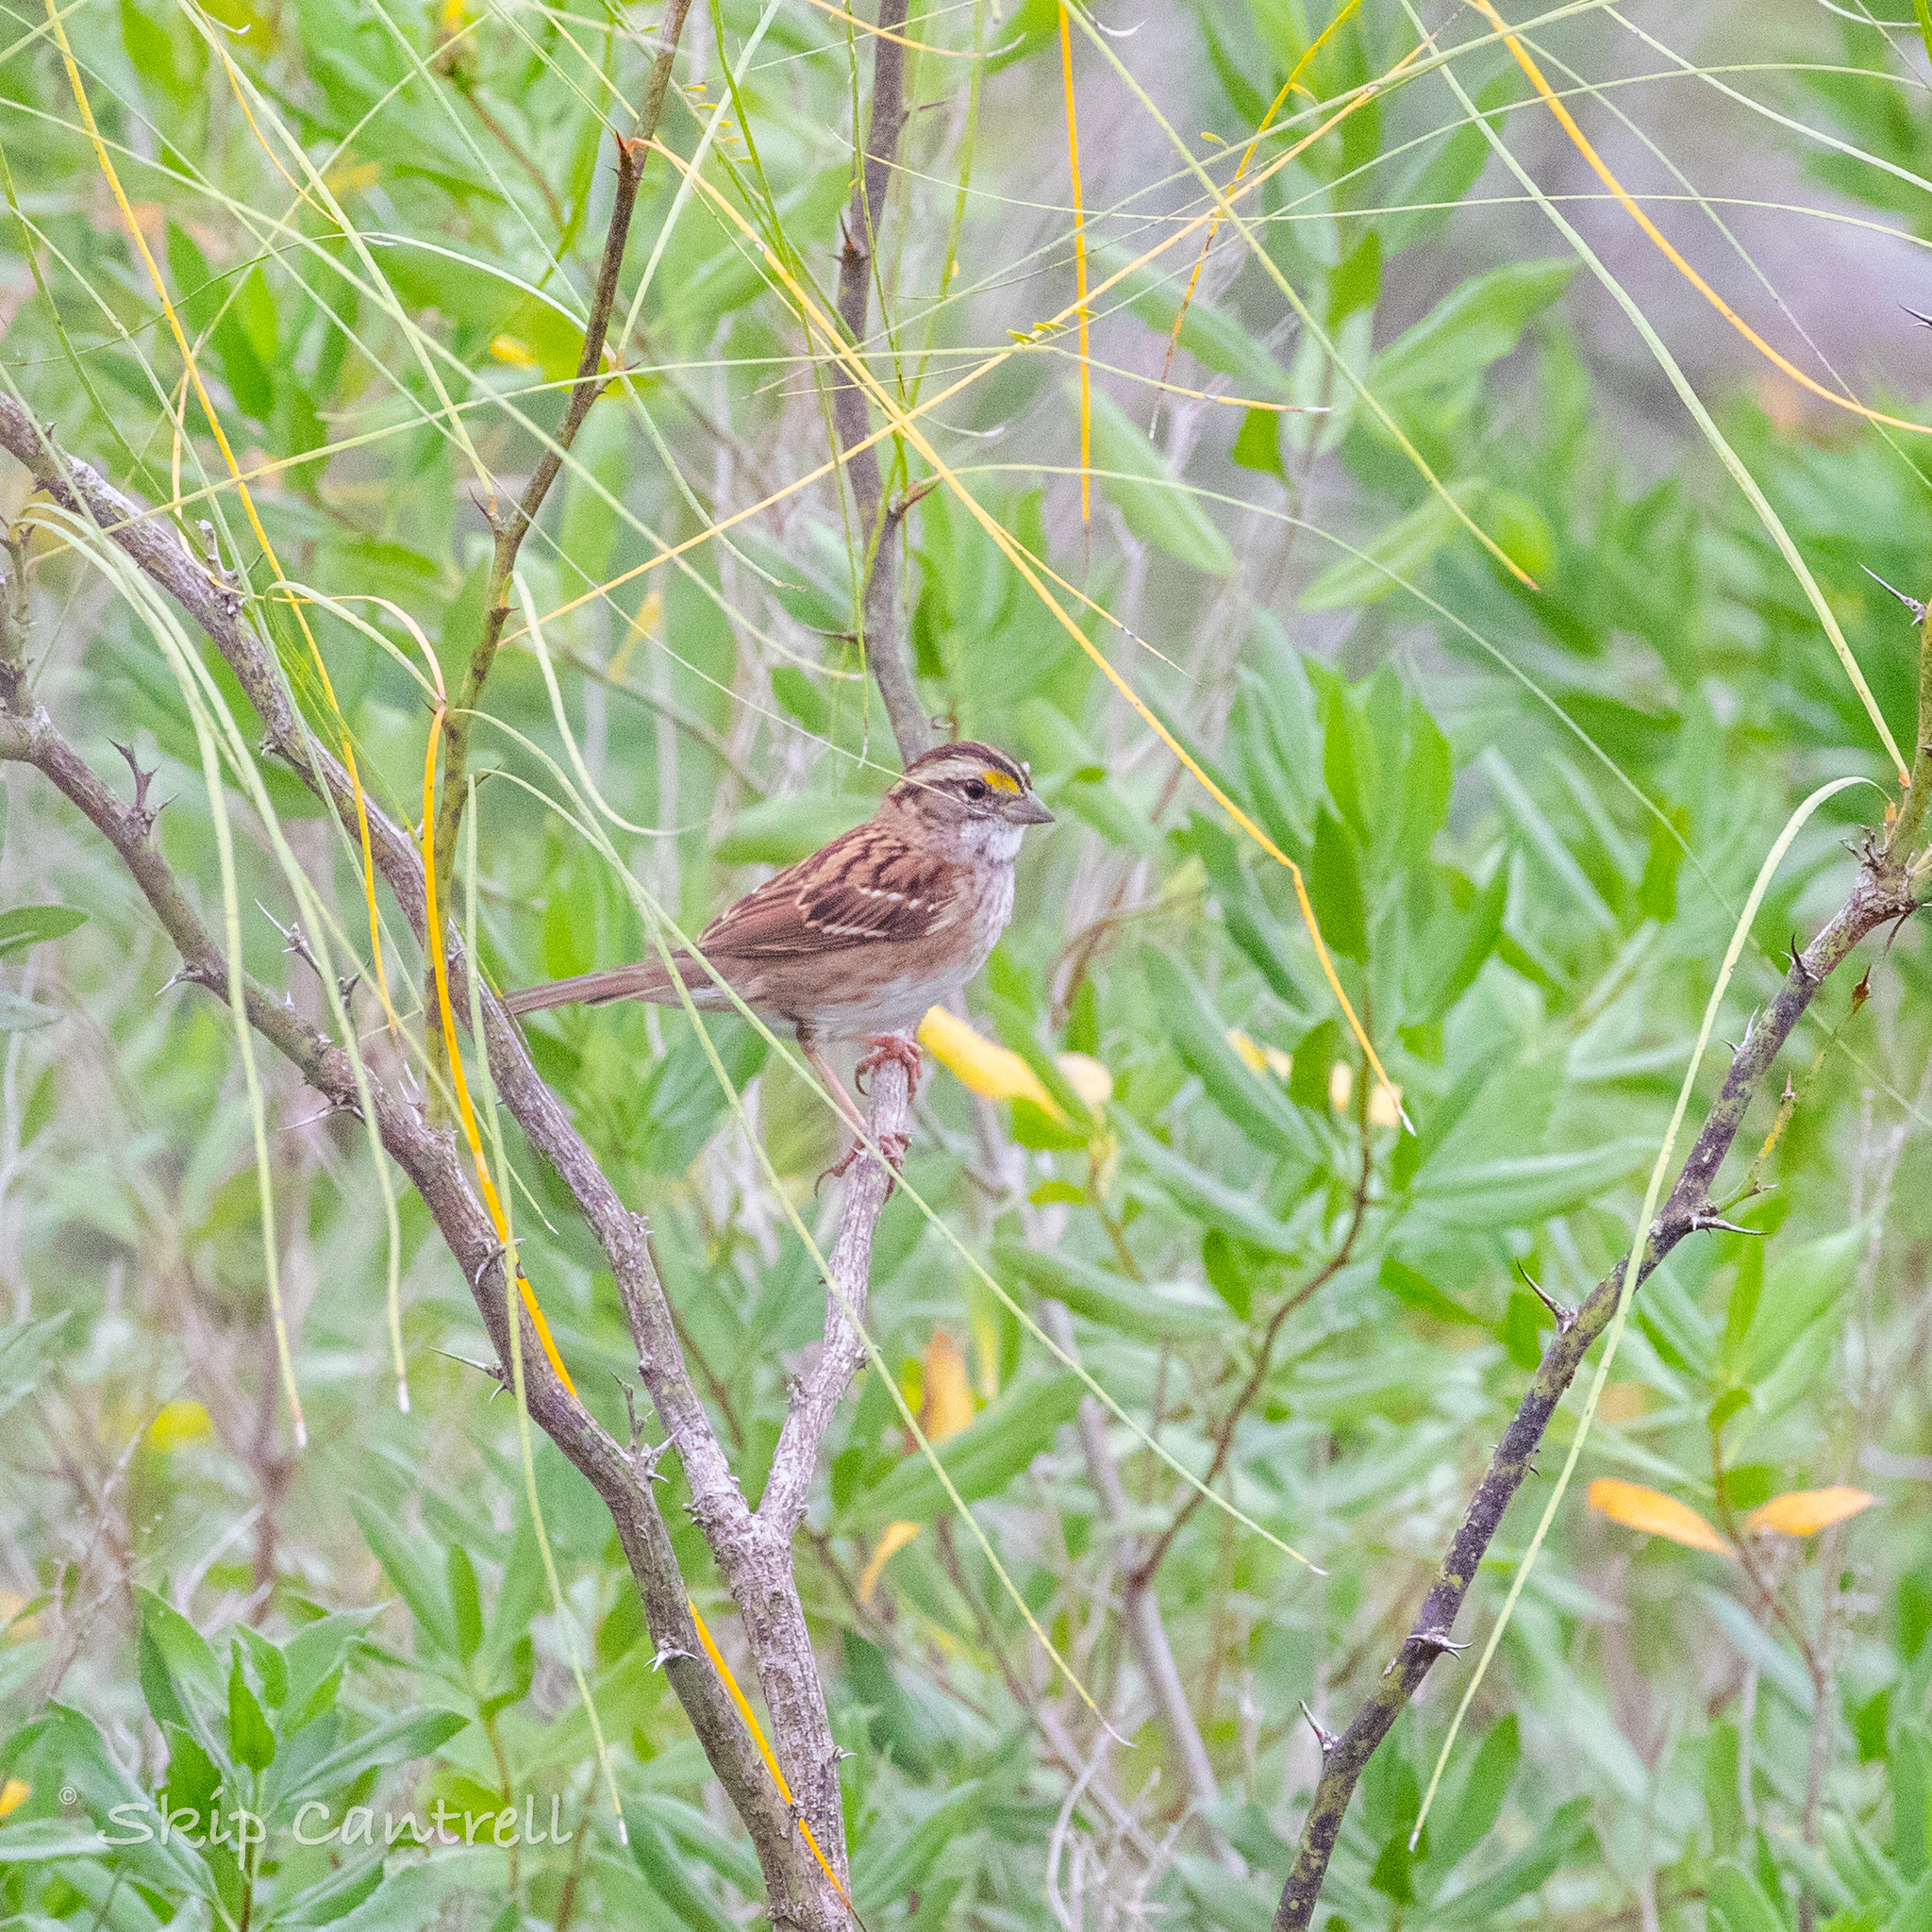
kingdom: Animalia
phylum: Chordata
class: Aves
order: Passeriformes
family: Passerellidae
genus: Zonotrichia
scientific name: Zonotrichia albicollis
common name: White-throated sparrow
